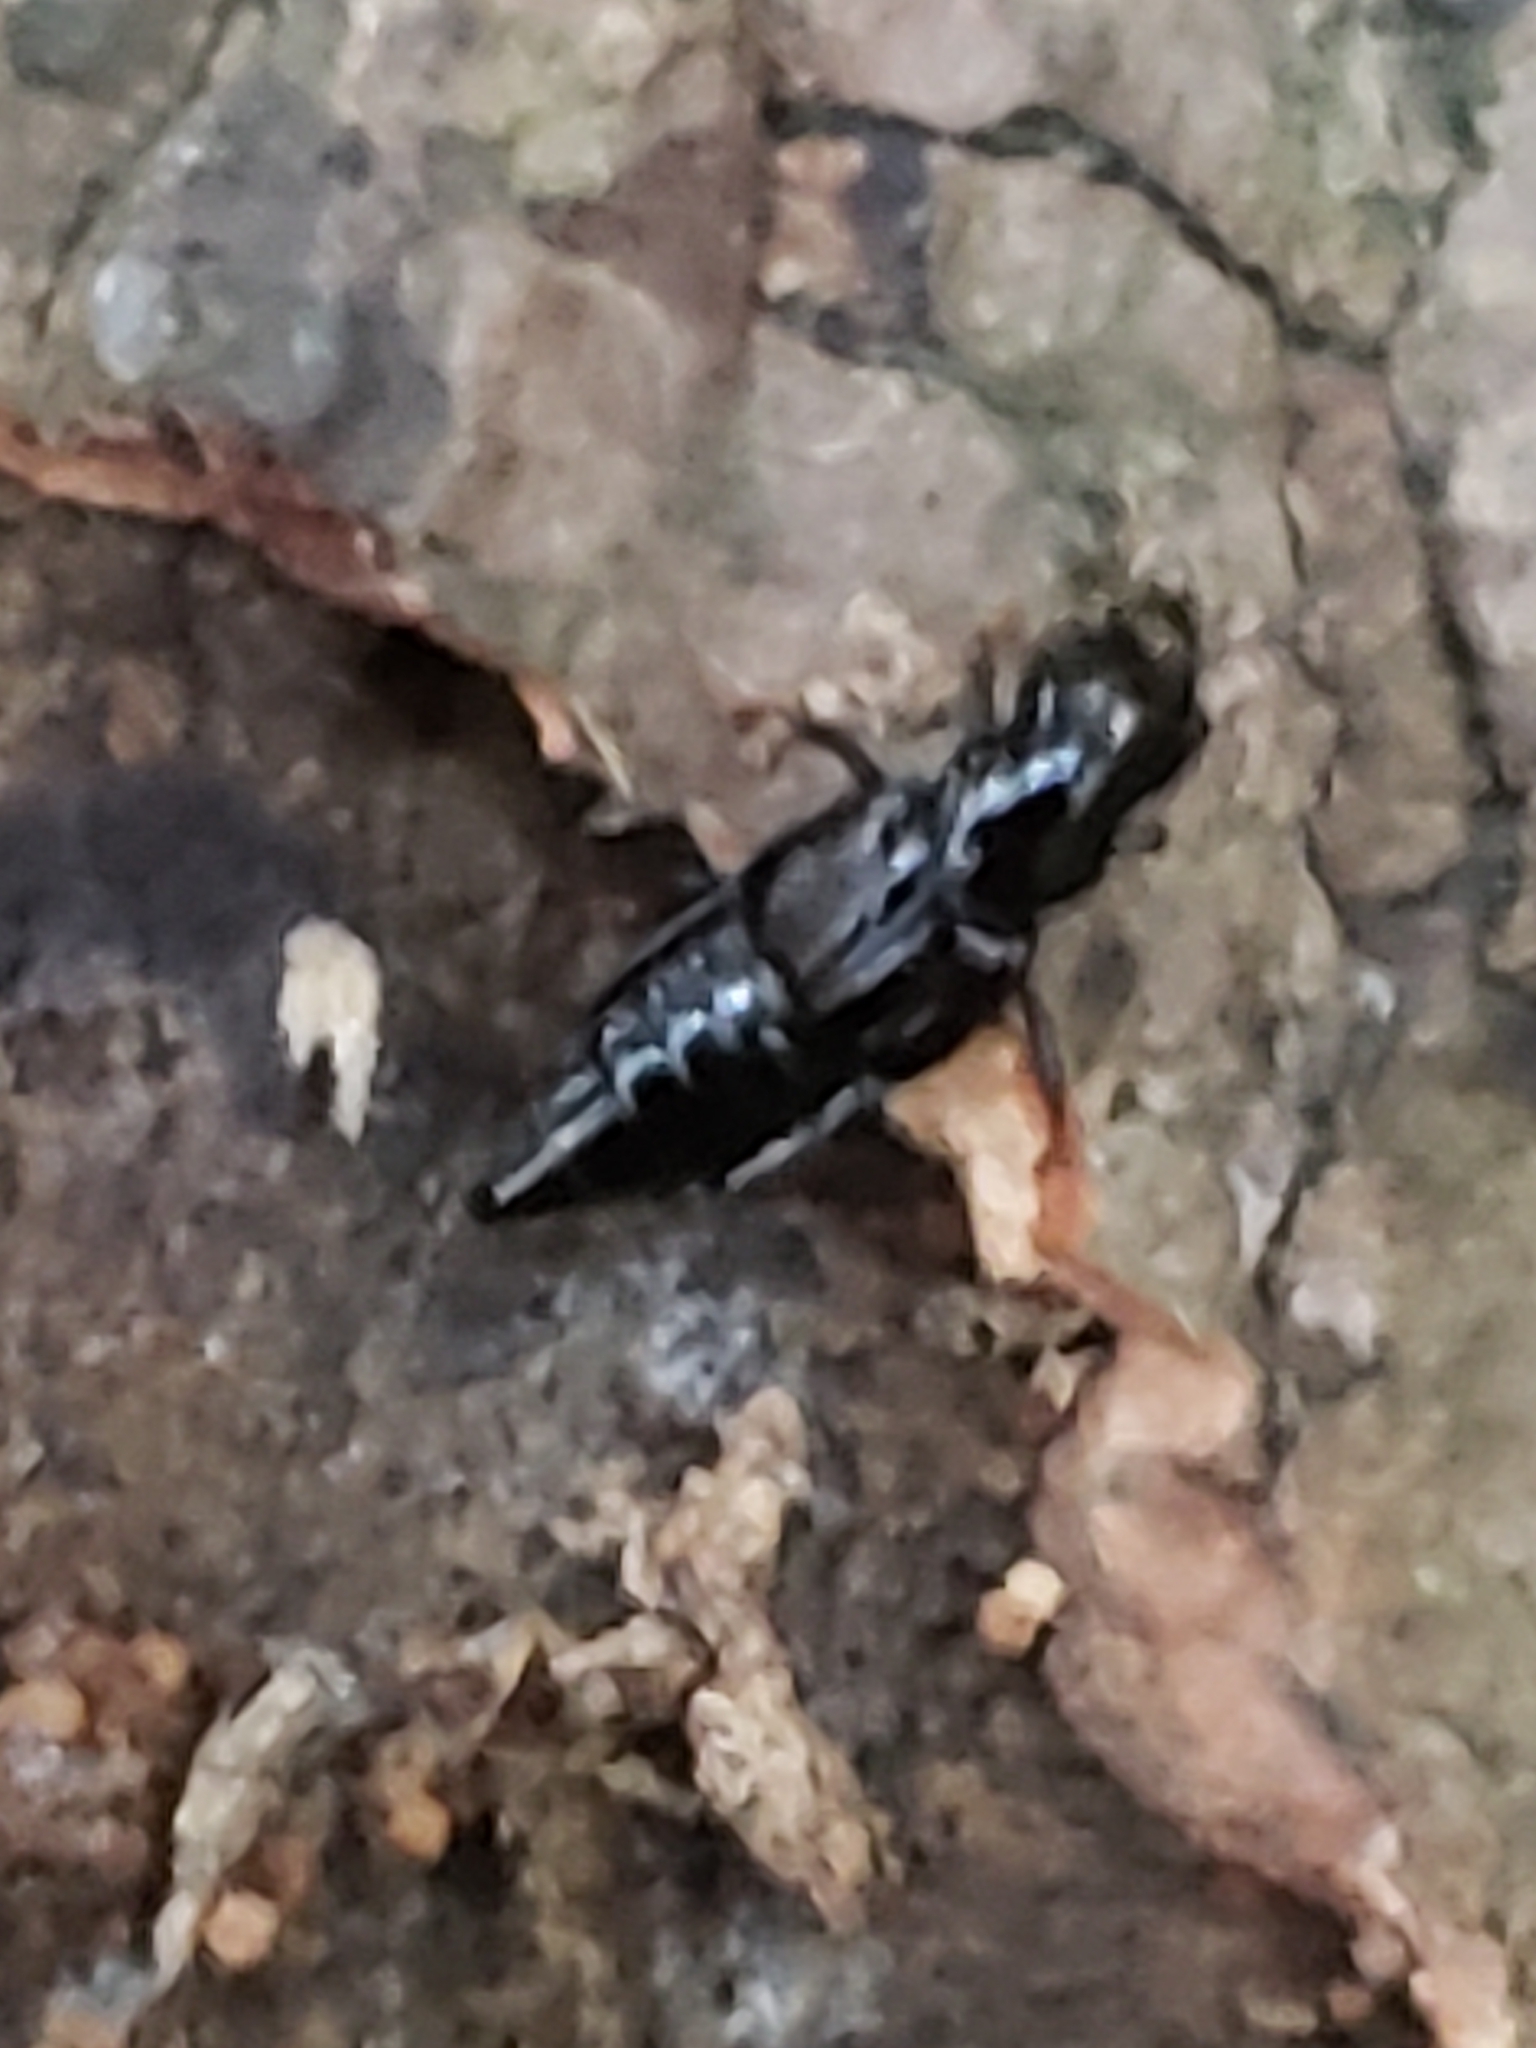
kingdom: Animalia
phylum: Arthropoda
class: Insecta
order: Coleoptera
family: Staphylinidae
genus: Oxyporus
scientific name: Oxyporus stygicus
